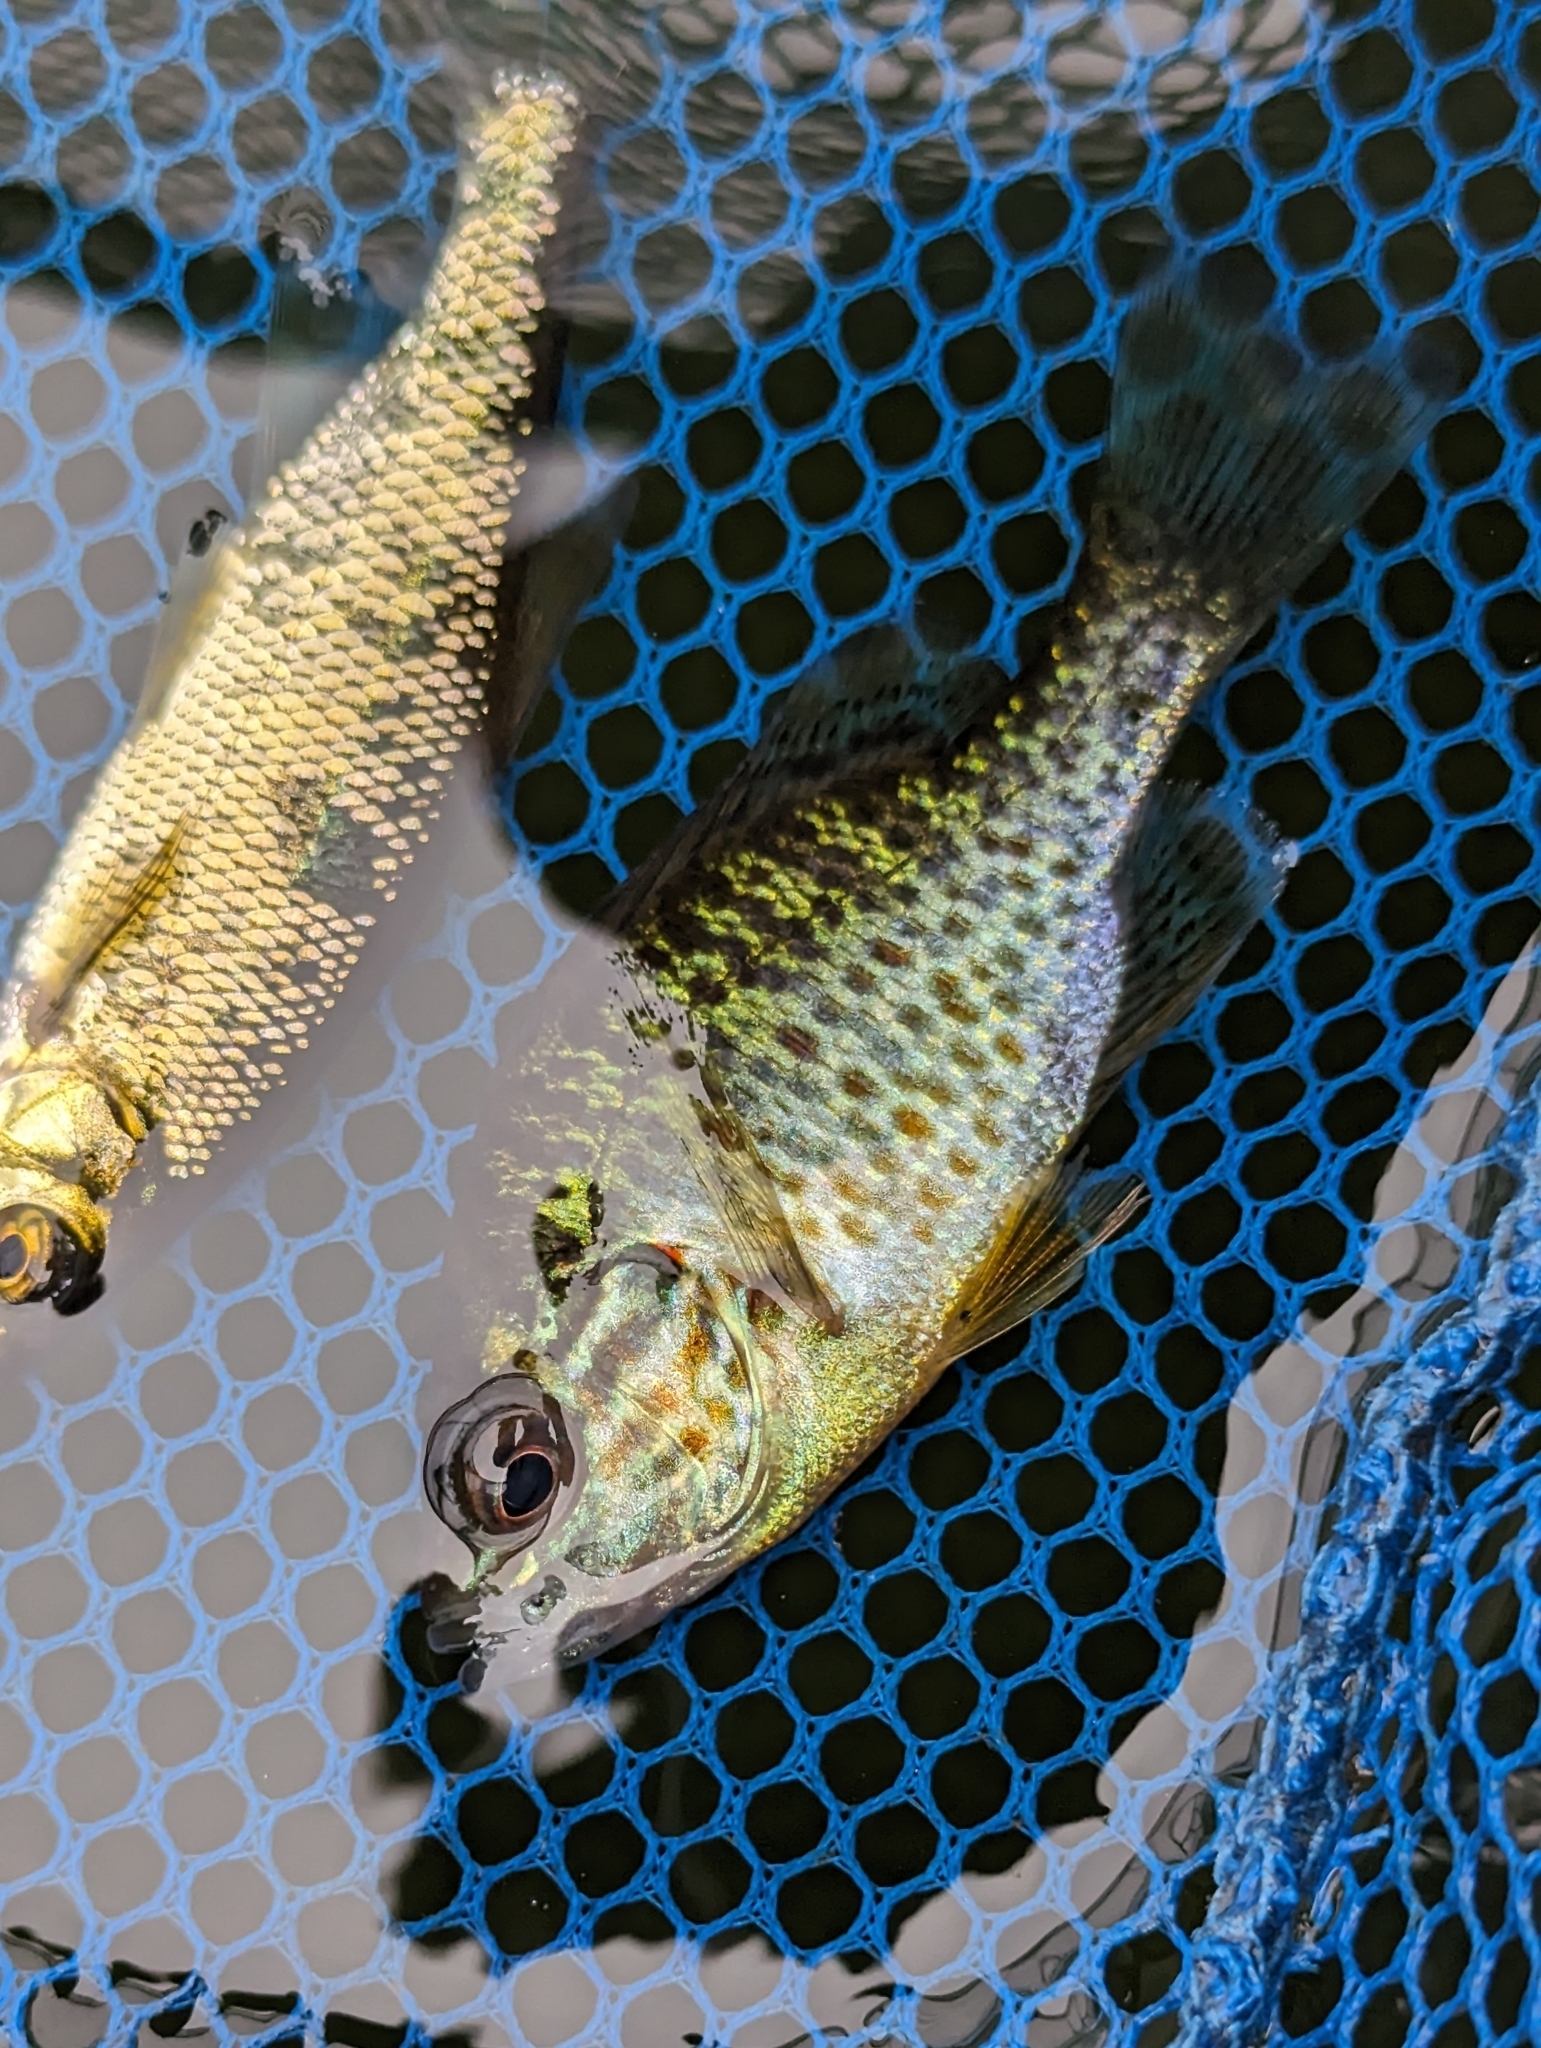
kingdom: Animalia
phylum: Chordata
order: Perciformes
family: Centrarchidae
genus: Lepomis
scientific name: Lepomis gibbosus
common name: Pumpkinseed
